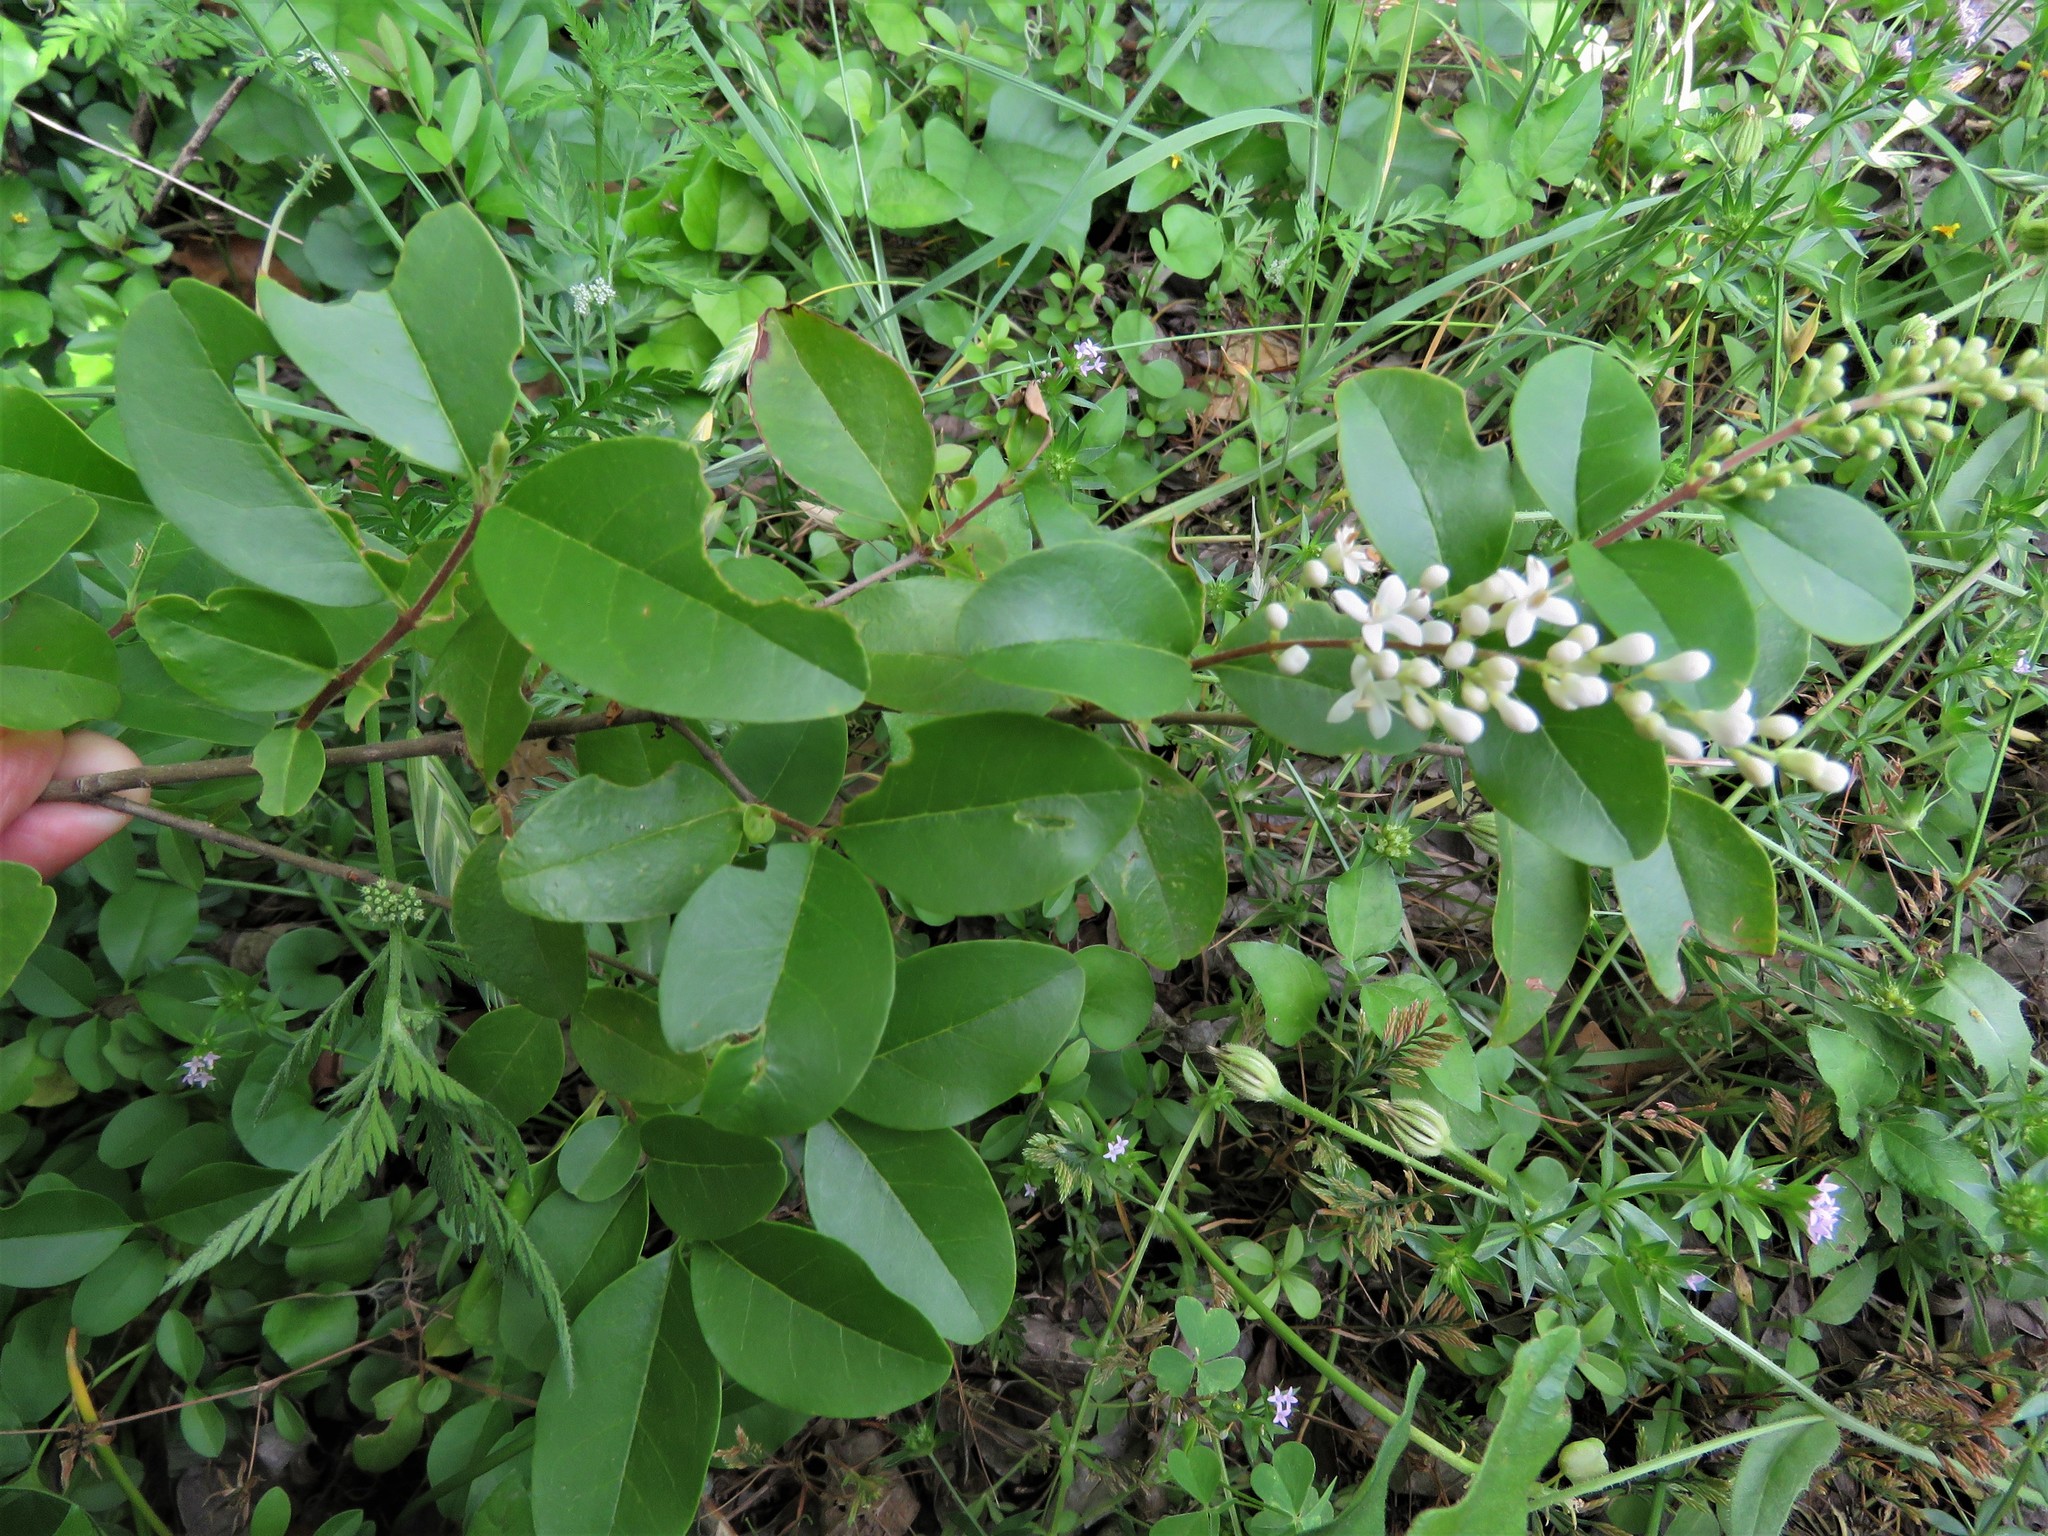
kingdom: Plantae
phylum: Tracheophyta
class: Magnoliopsida
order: Lamiales
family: Oleaceae
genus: Ligustrum
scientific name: Ligustrum sinense
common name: Chinese privet
